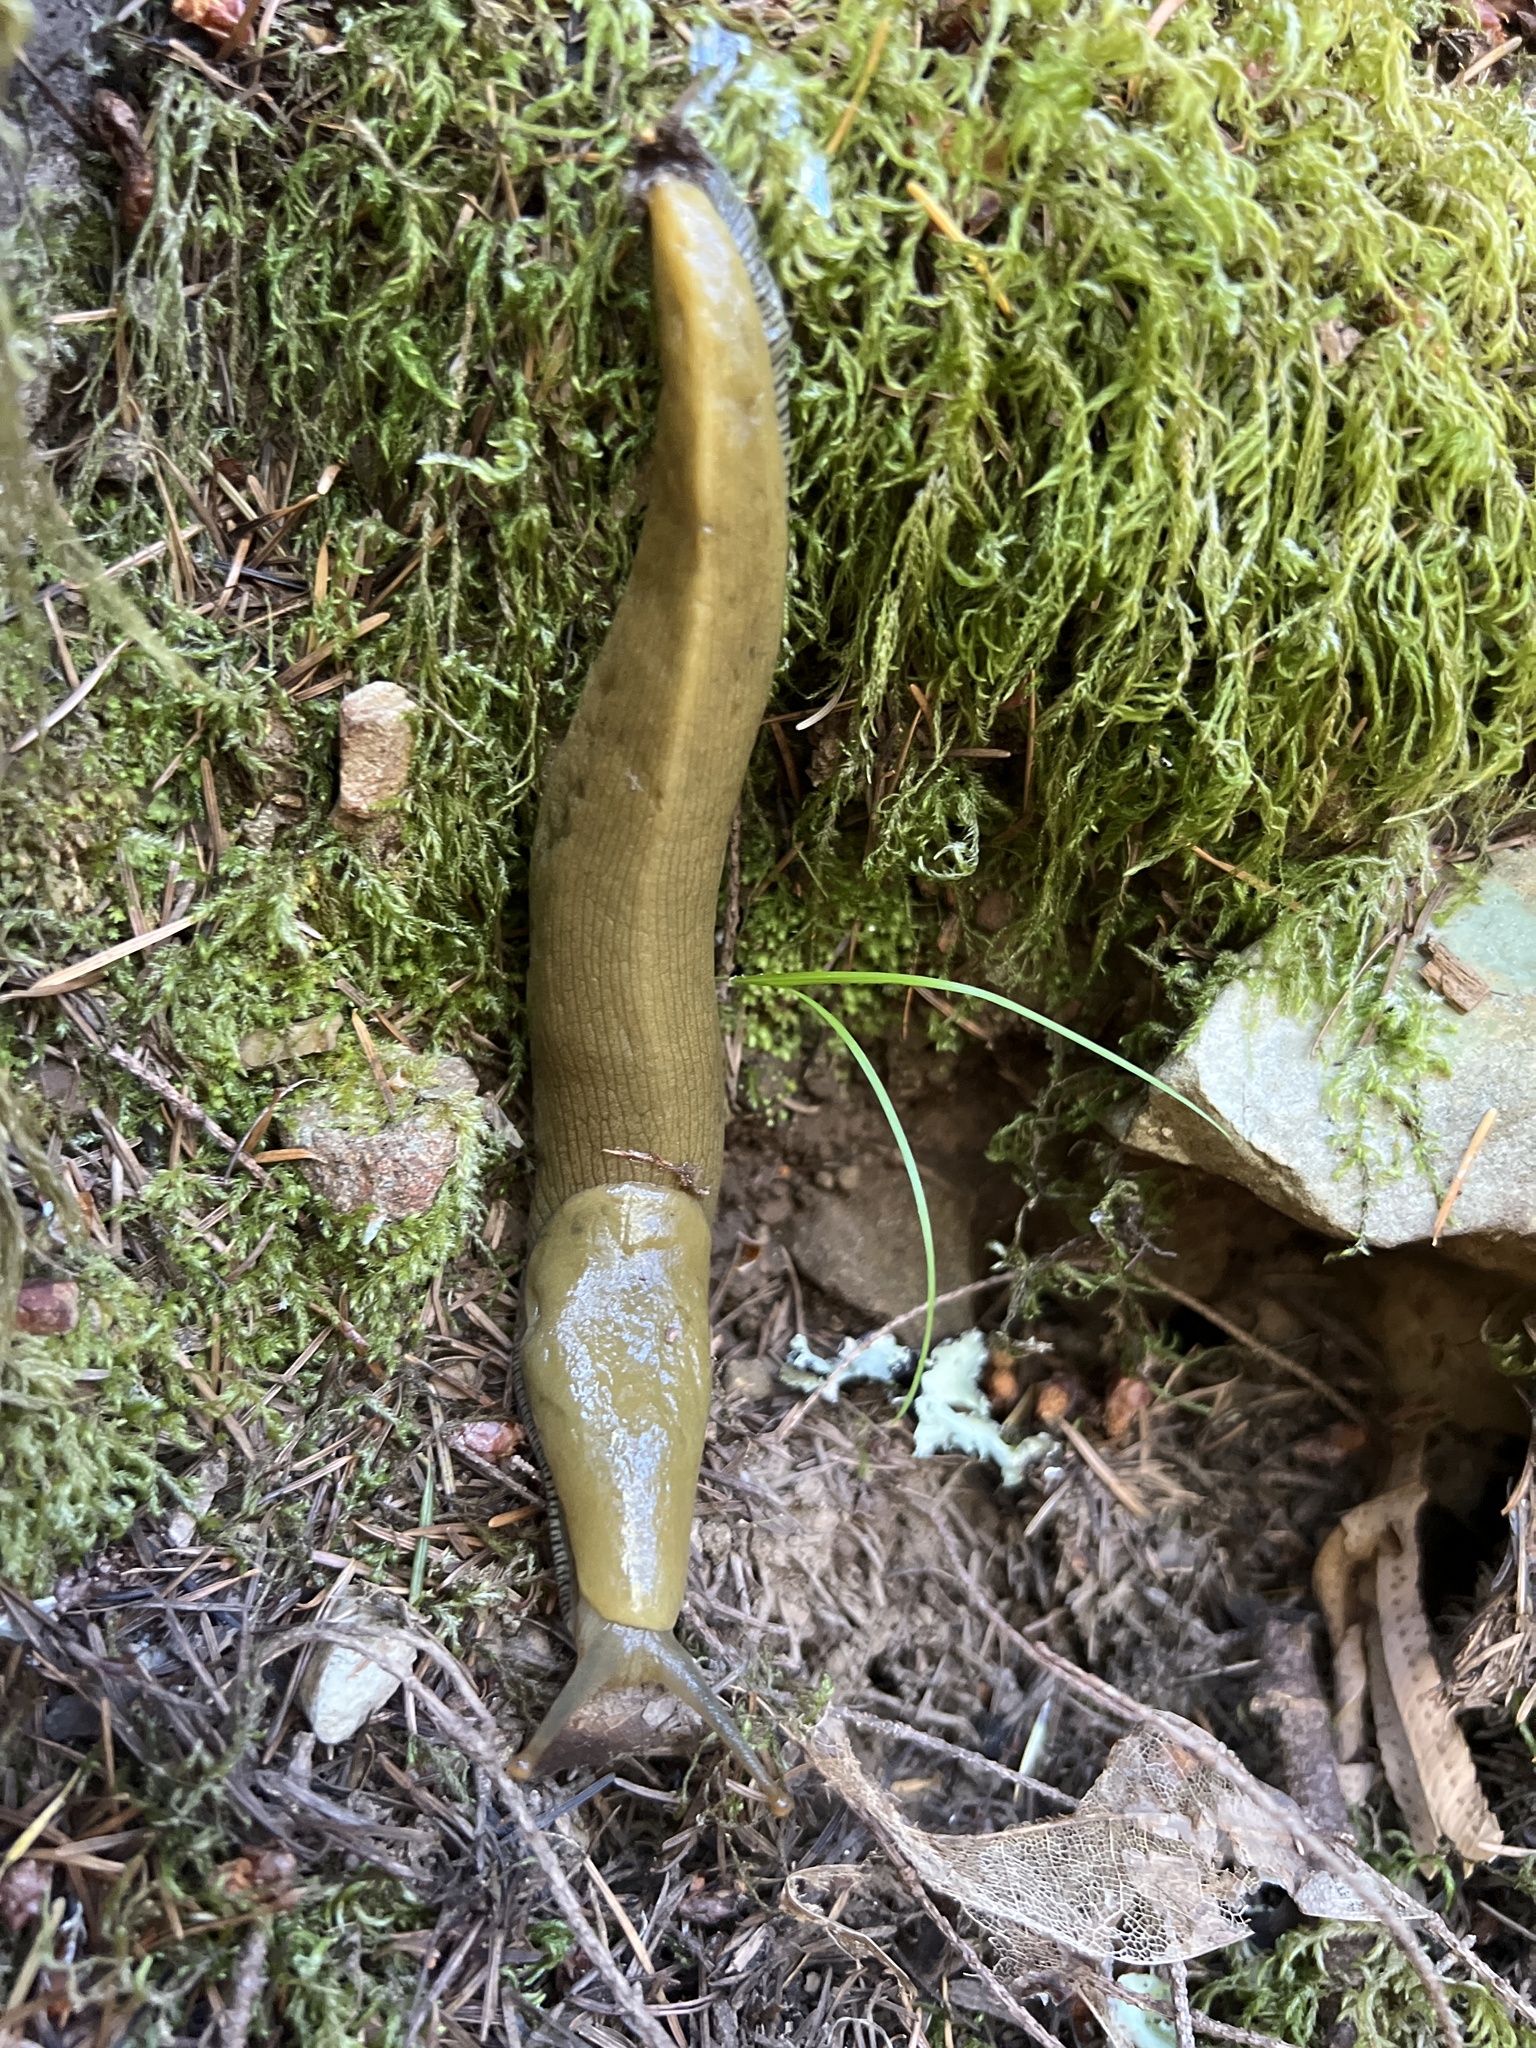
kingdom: Animalia
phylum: Mollusca
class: Gastropoda
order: Stylommatophora
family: Ariolimacidae
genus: Ariolimax
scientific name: Ariolimax buttoni
